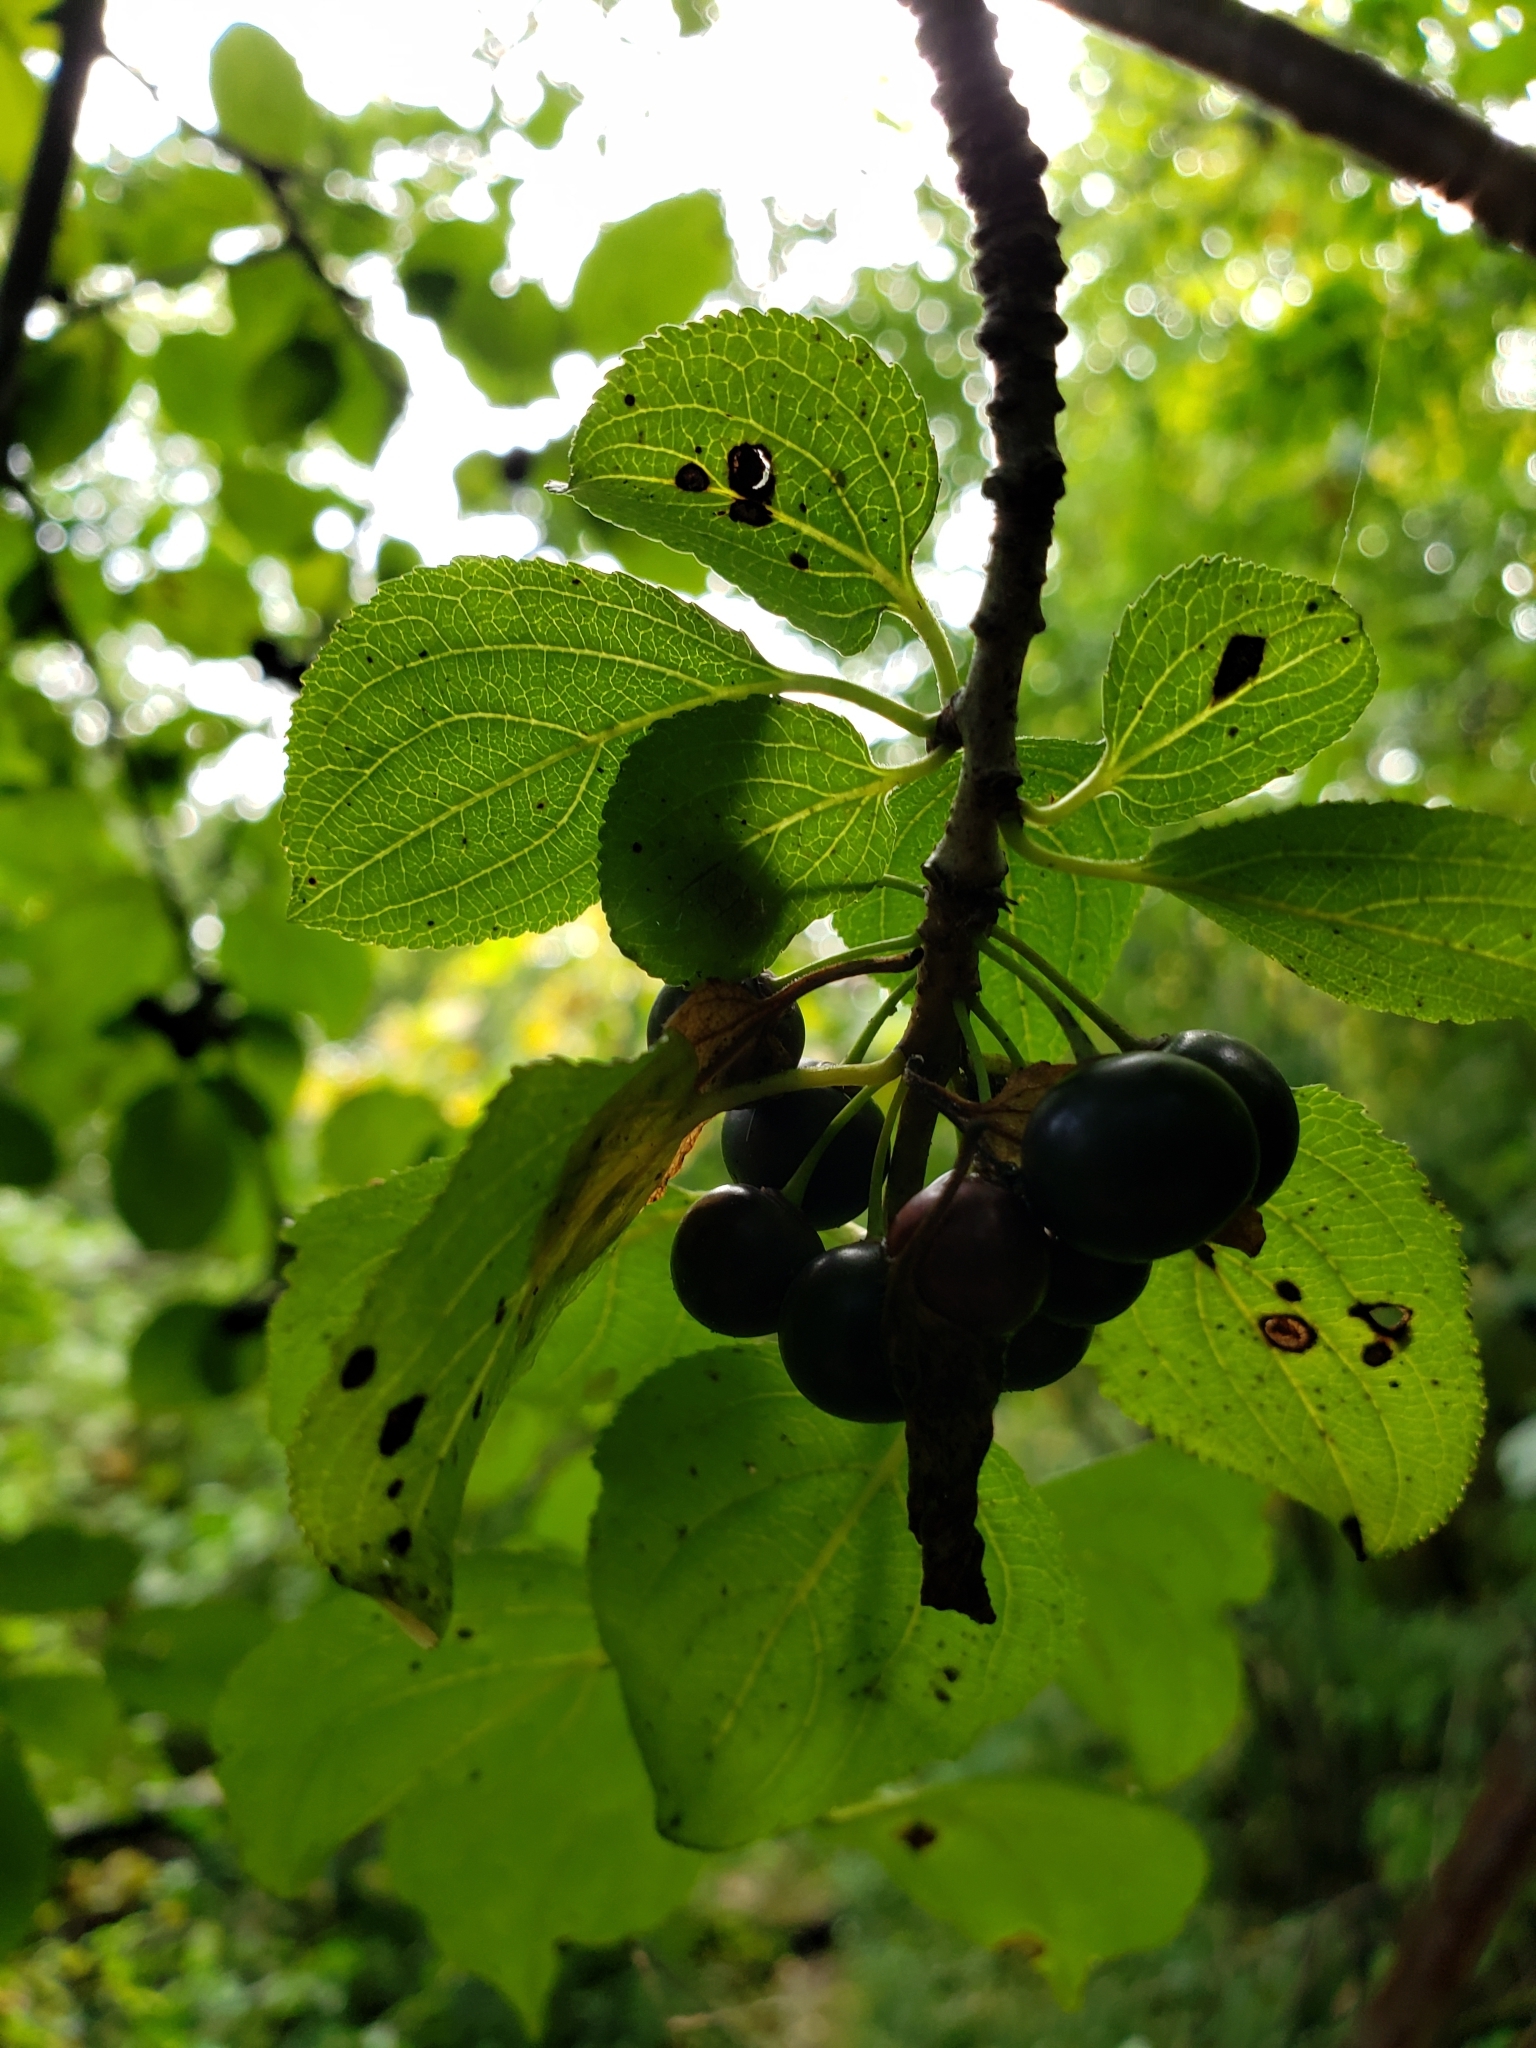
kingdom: Plantae
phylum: Tracheophyta
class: Magnoliopsida
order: Rosales
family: Rhamnaceae
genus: Rhamnus
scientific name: Rhamnus cathartica
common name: Common buckthorn
